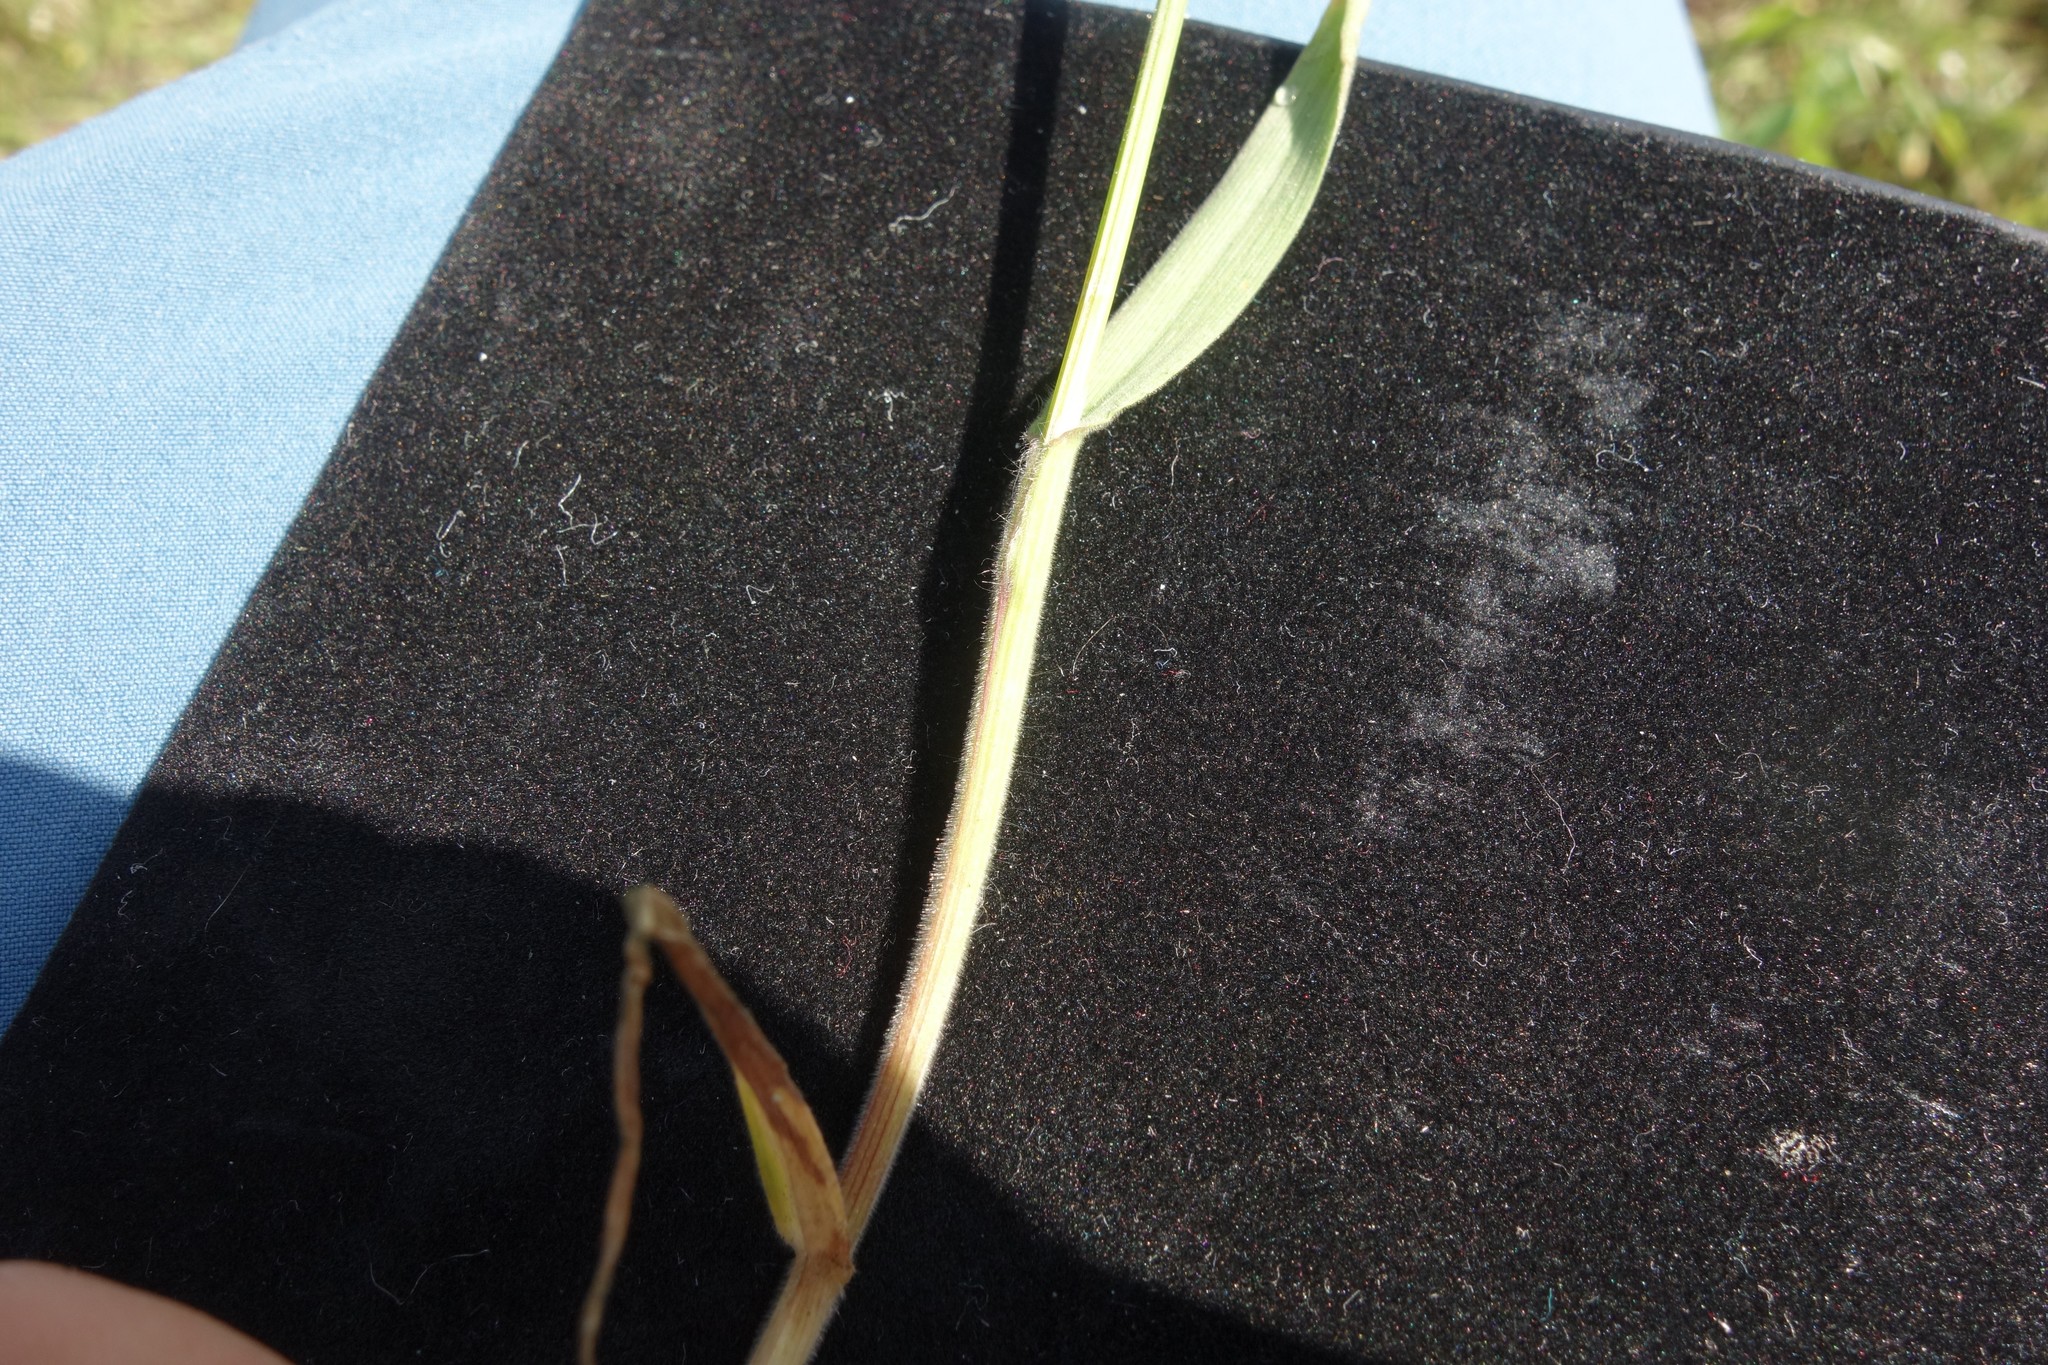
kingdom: Plantae
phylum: Tracheophyta
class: Liliopsida
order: Poales
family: Poaceae
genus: Bromus
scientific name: Bromus tectorum
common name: Cheatgrass
